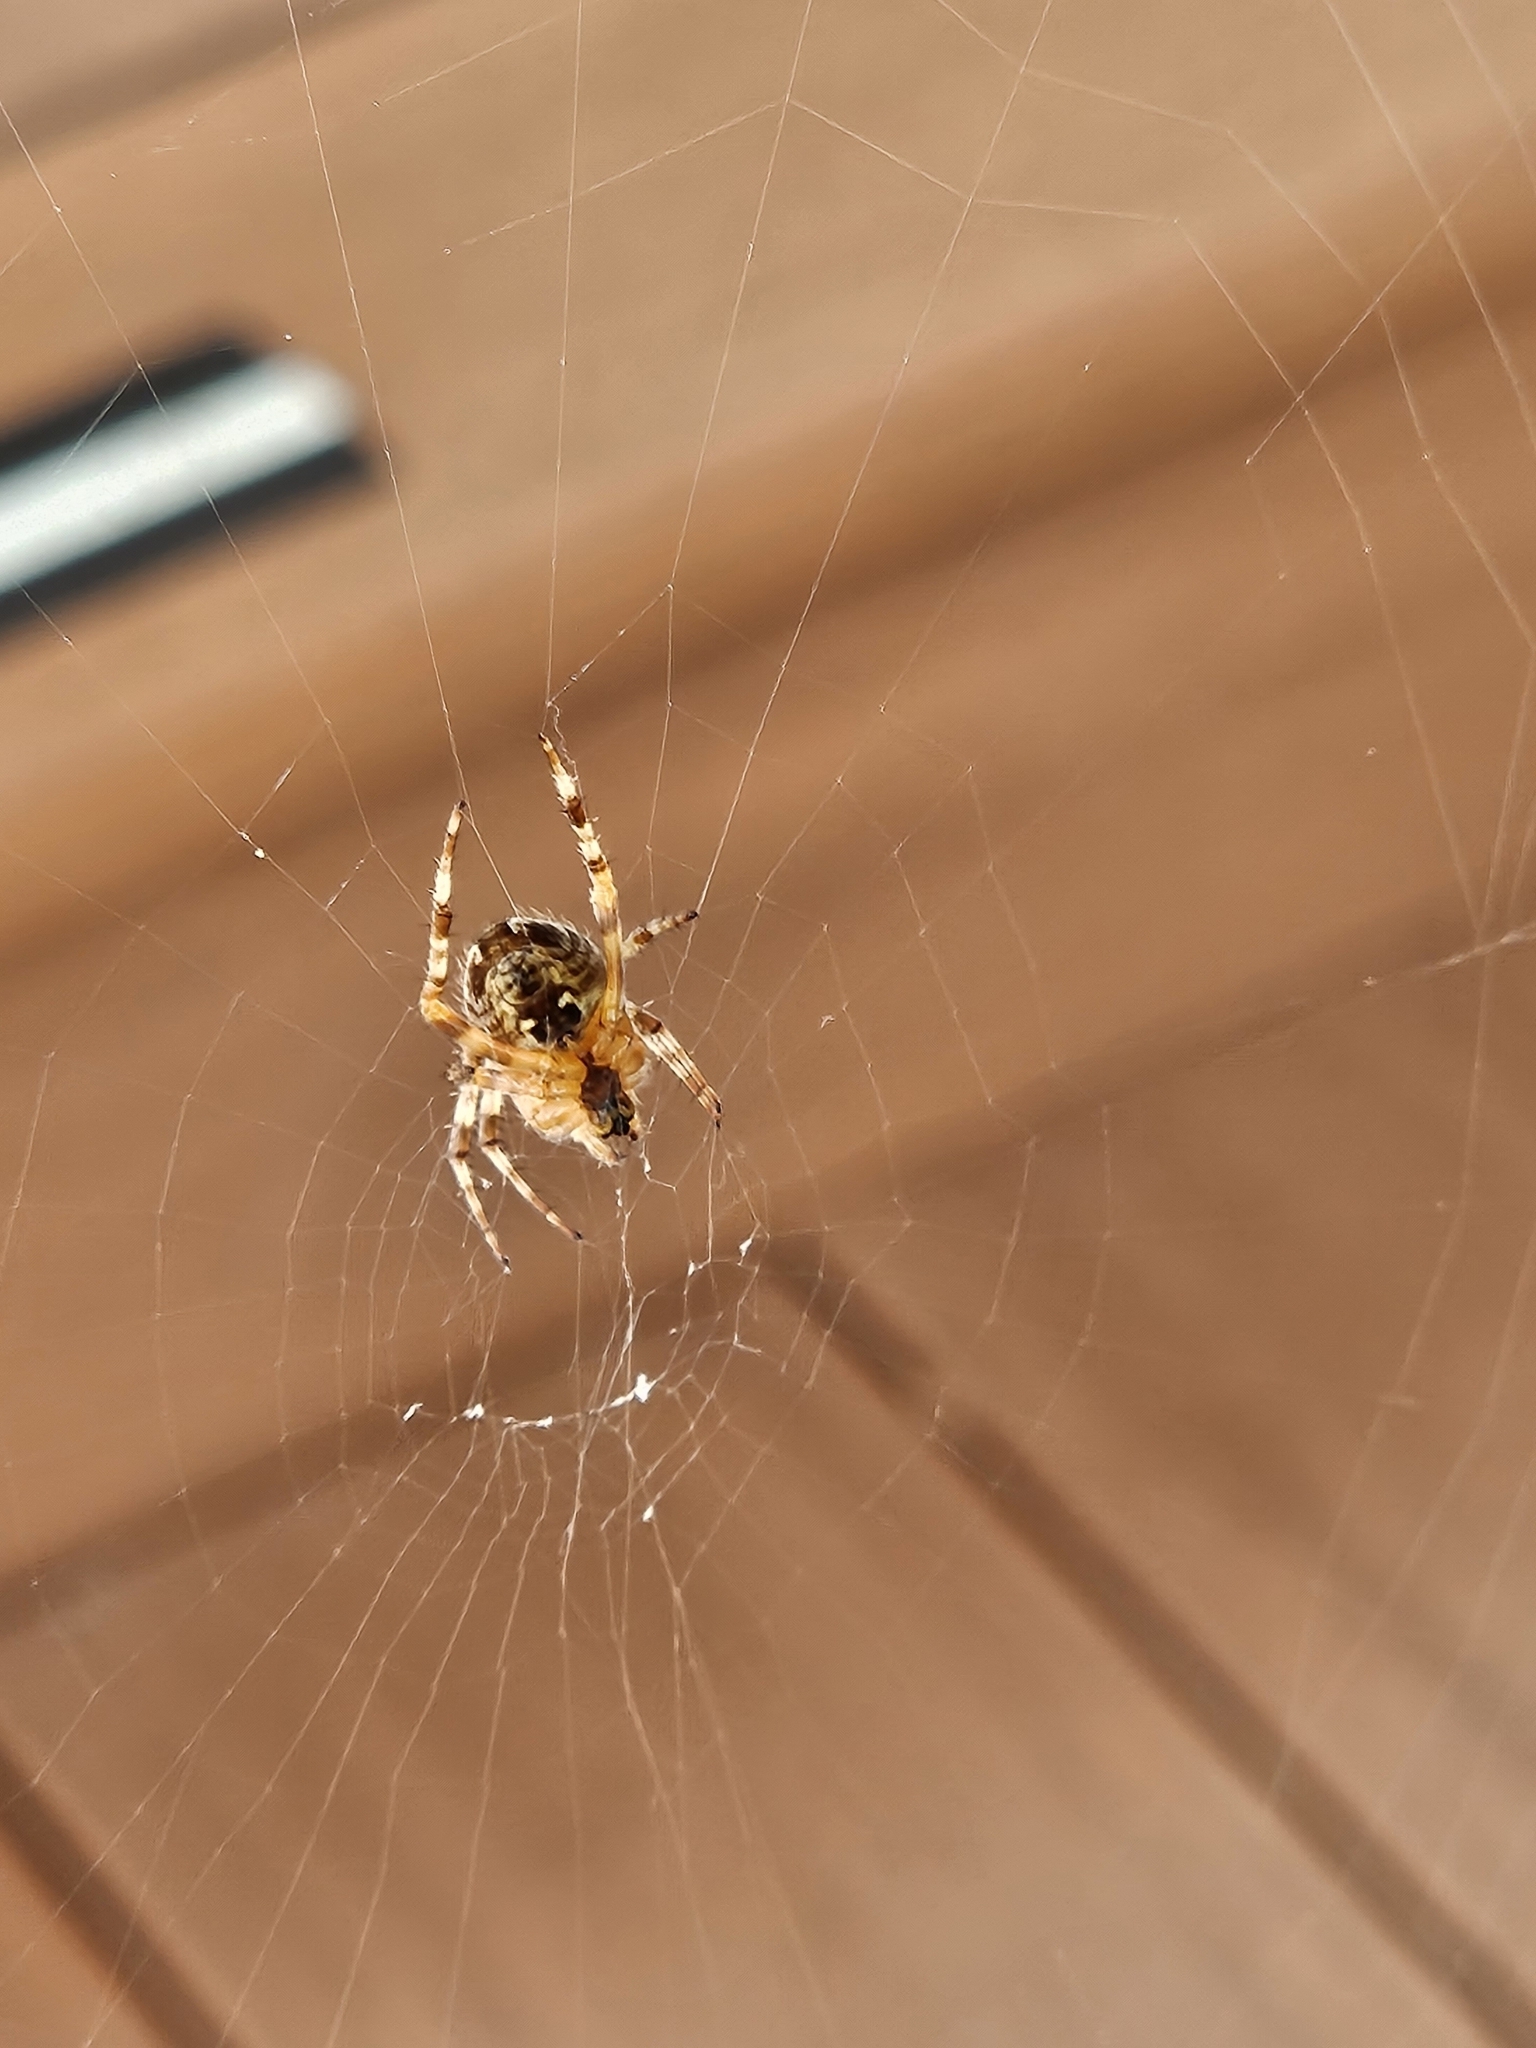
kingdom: Animalia
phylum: Arthropoda
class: Arachnida
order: Araneae
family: Araneidae
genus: Araneus
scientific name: Araneus diadematus
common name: Cross orbweaver
